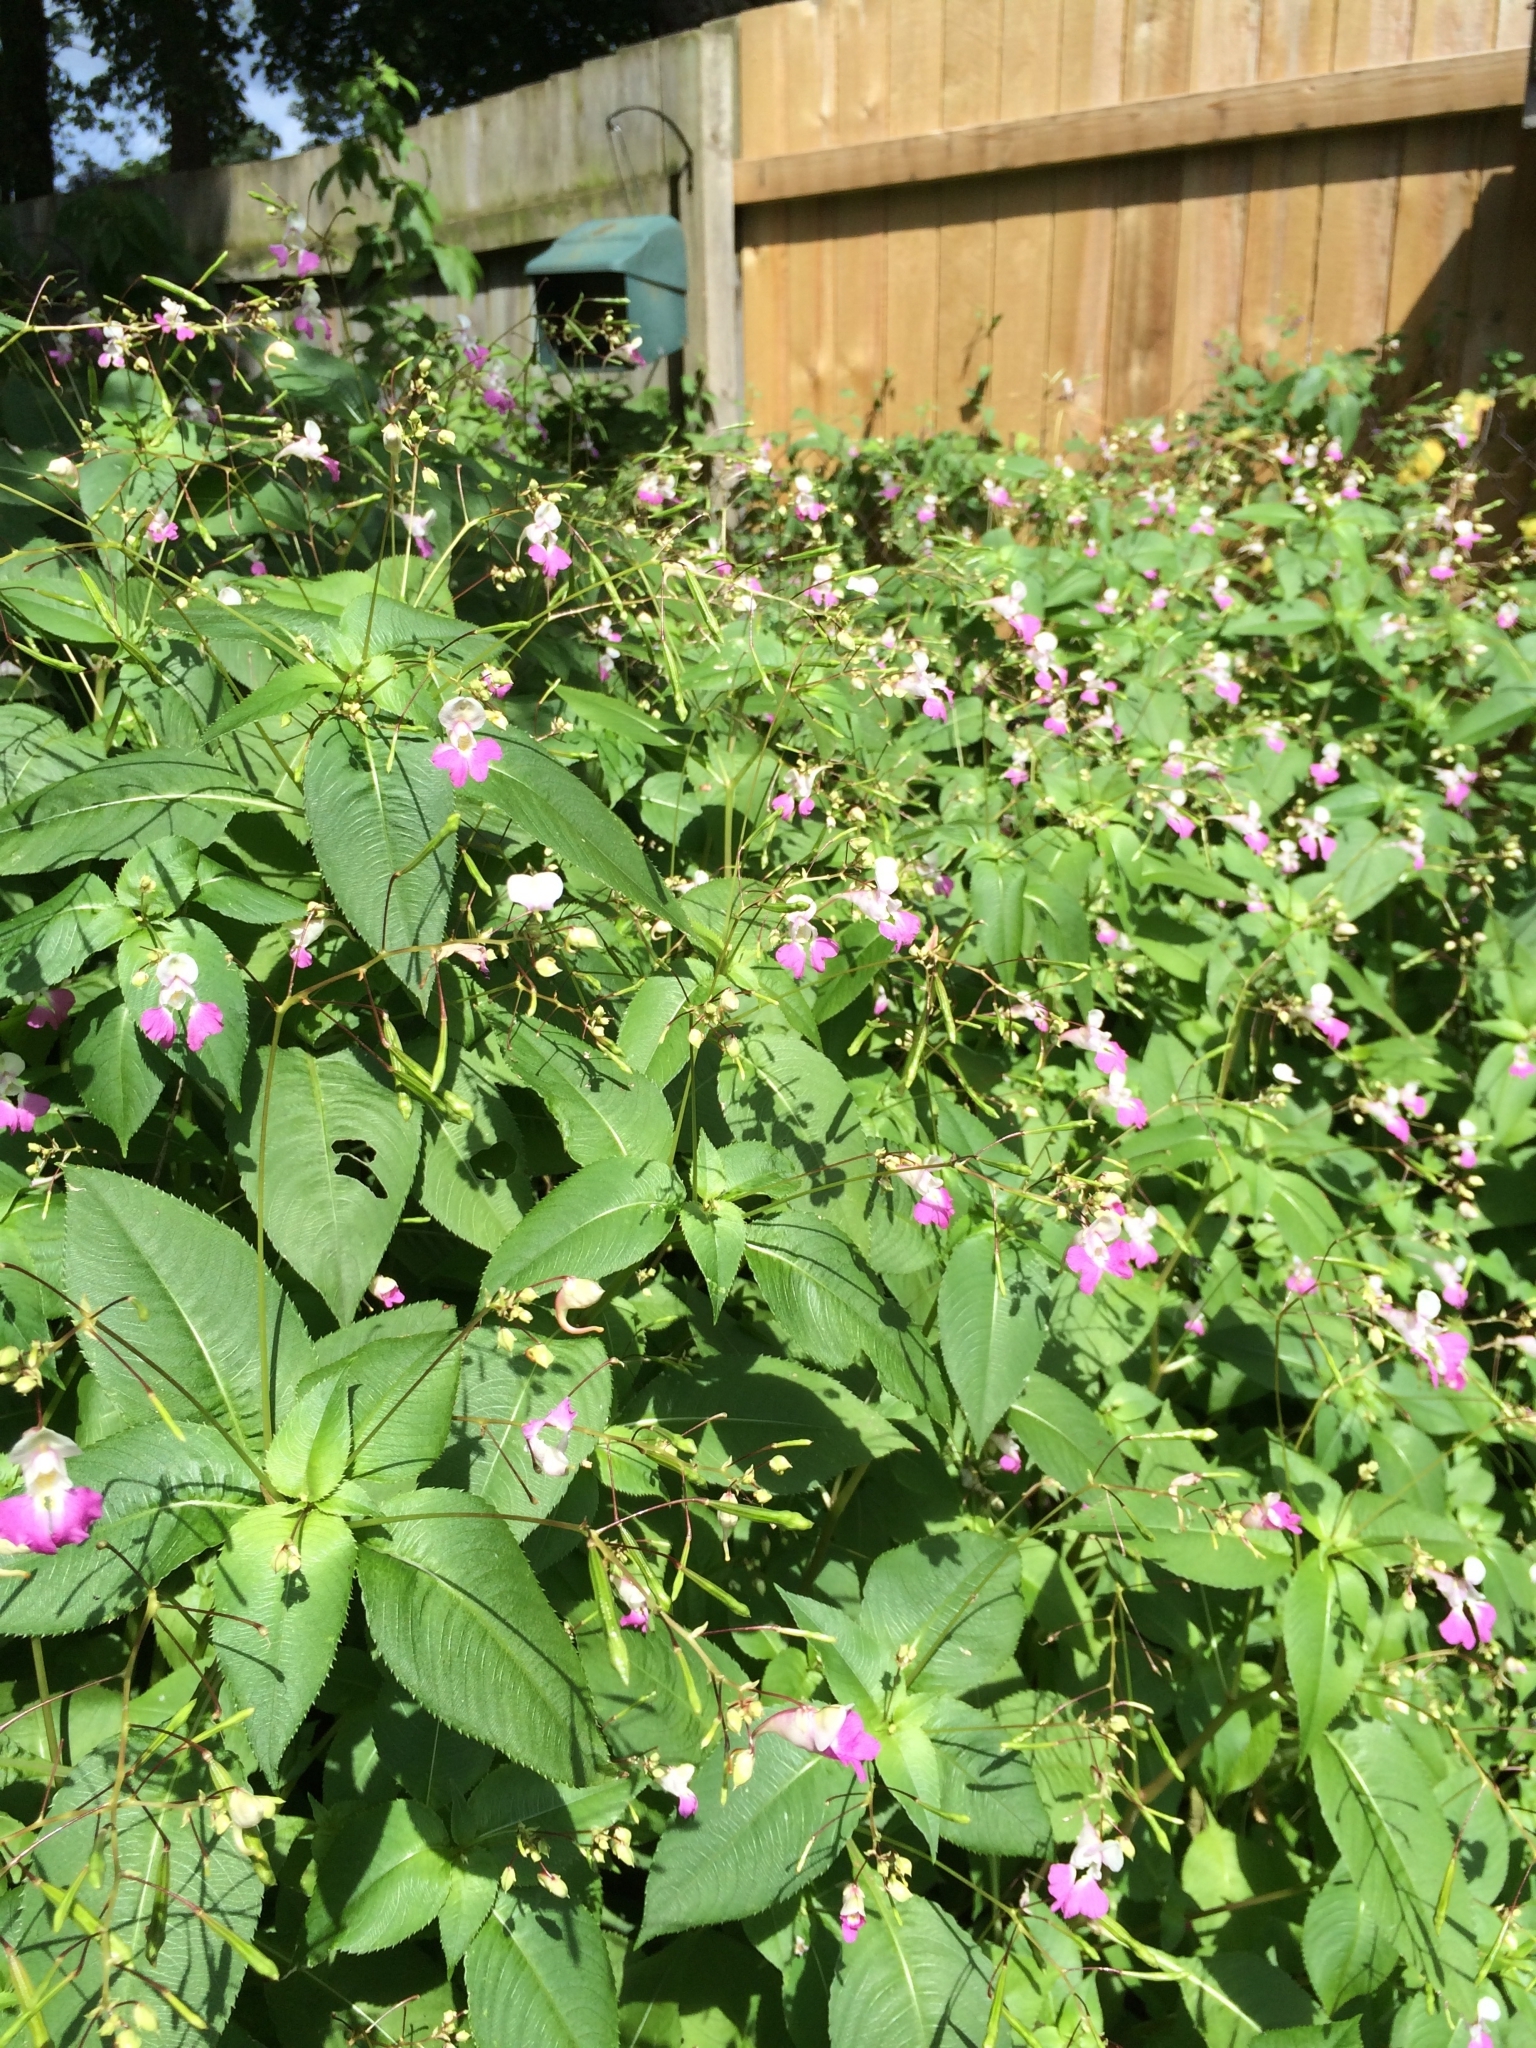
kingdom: Plantae
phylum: Tracheophyta
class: Magnoliopsida
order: Ericales
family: Balsaminaceae
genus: Impatiens
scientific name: Impatiens balfourii
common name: Balfour's touch-me-not
